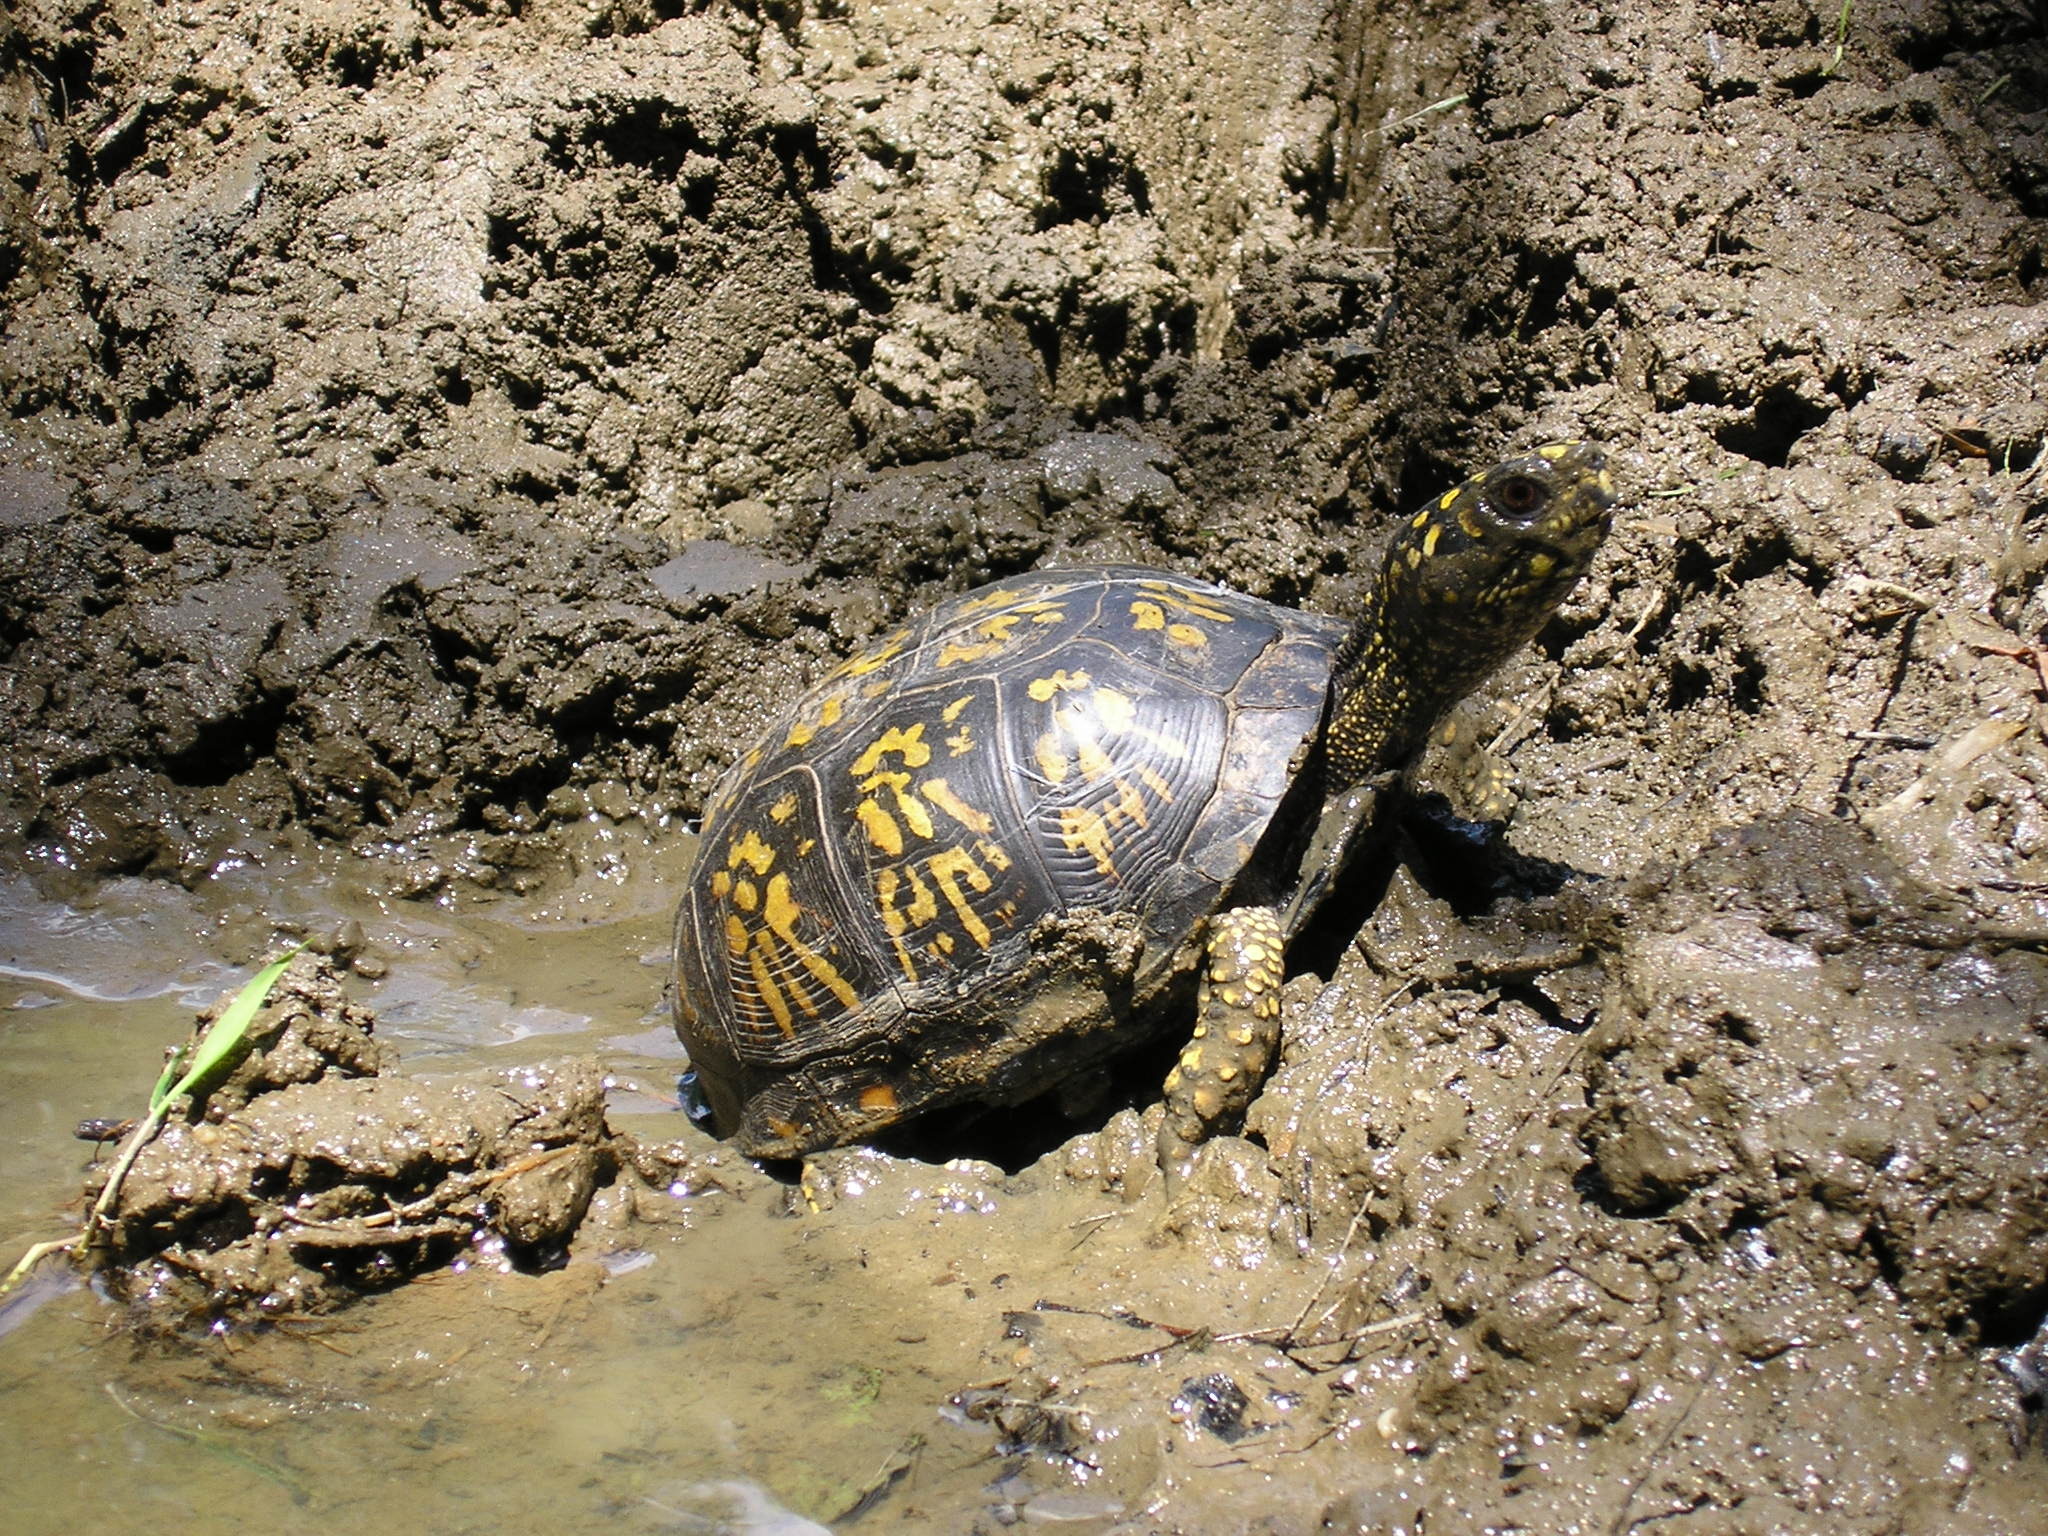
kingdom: Animalia
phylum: Chordata
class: Testudines
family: Emydidae
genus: Terrapene
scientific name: Terrapene carolina
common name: Common box turtle
